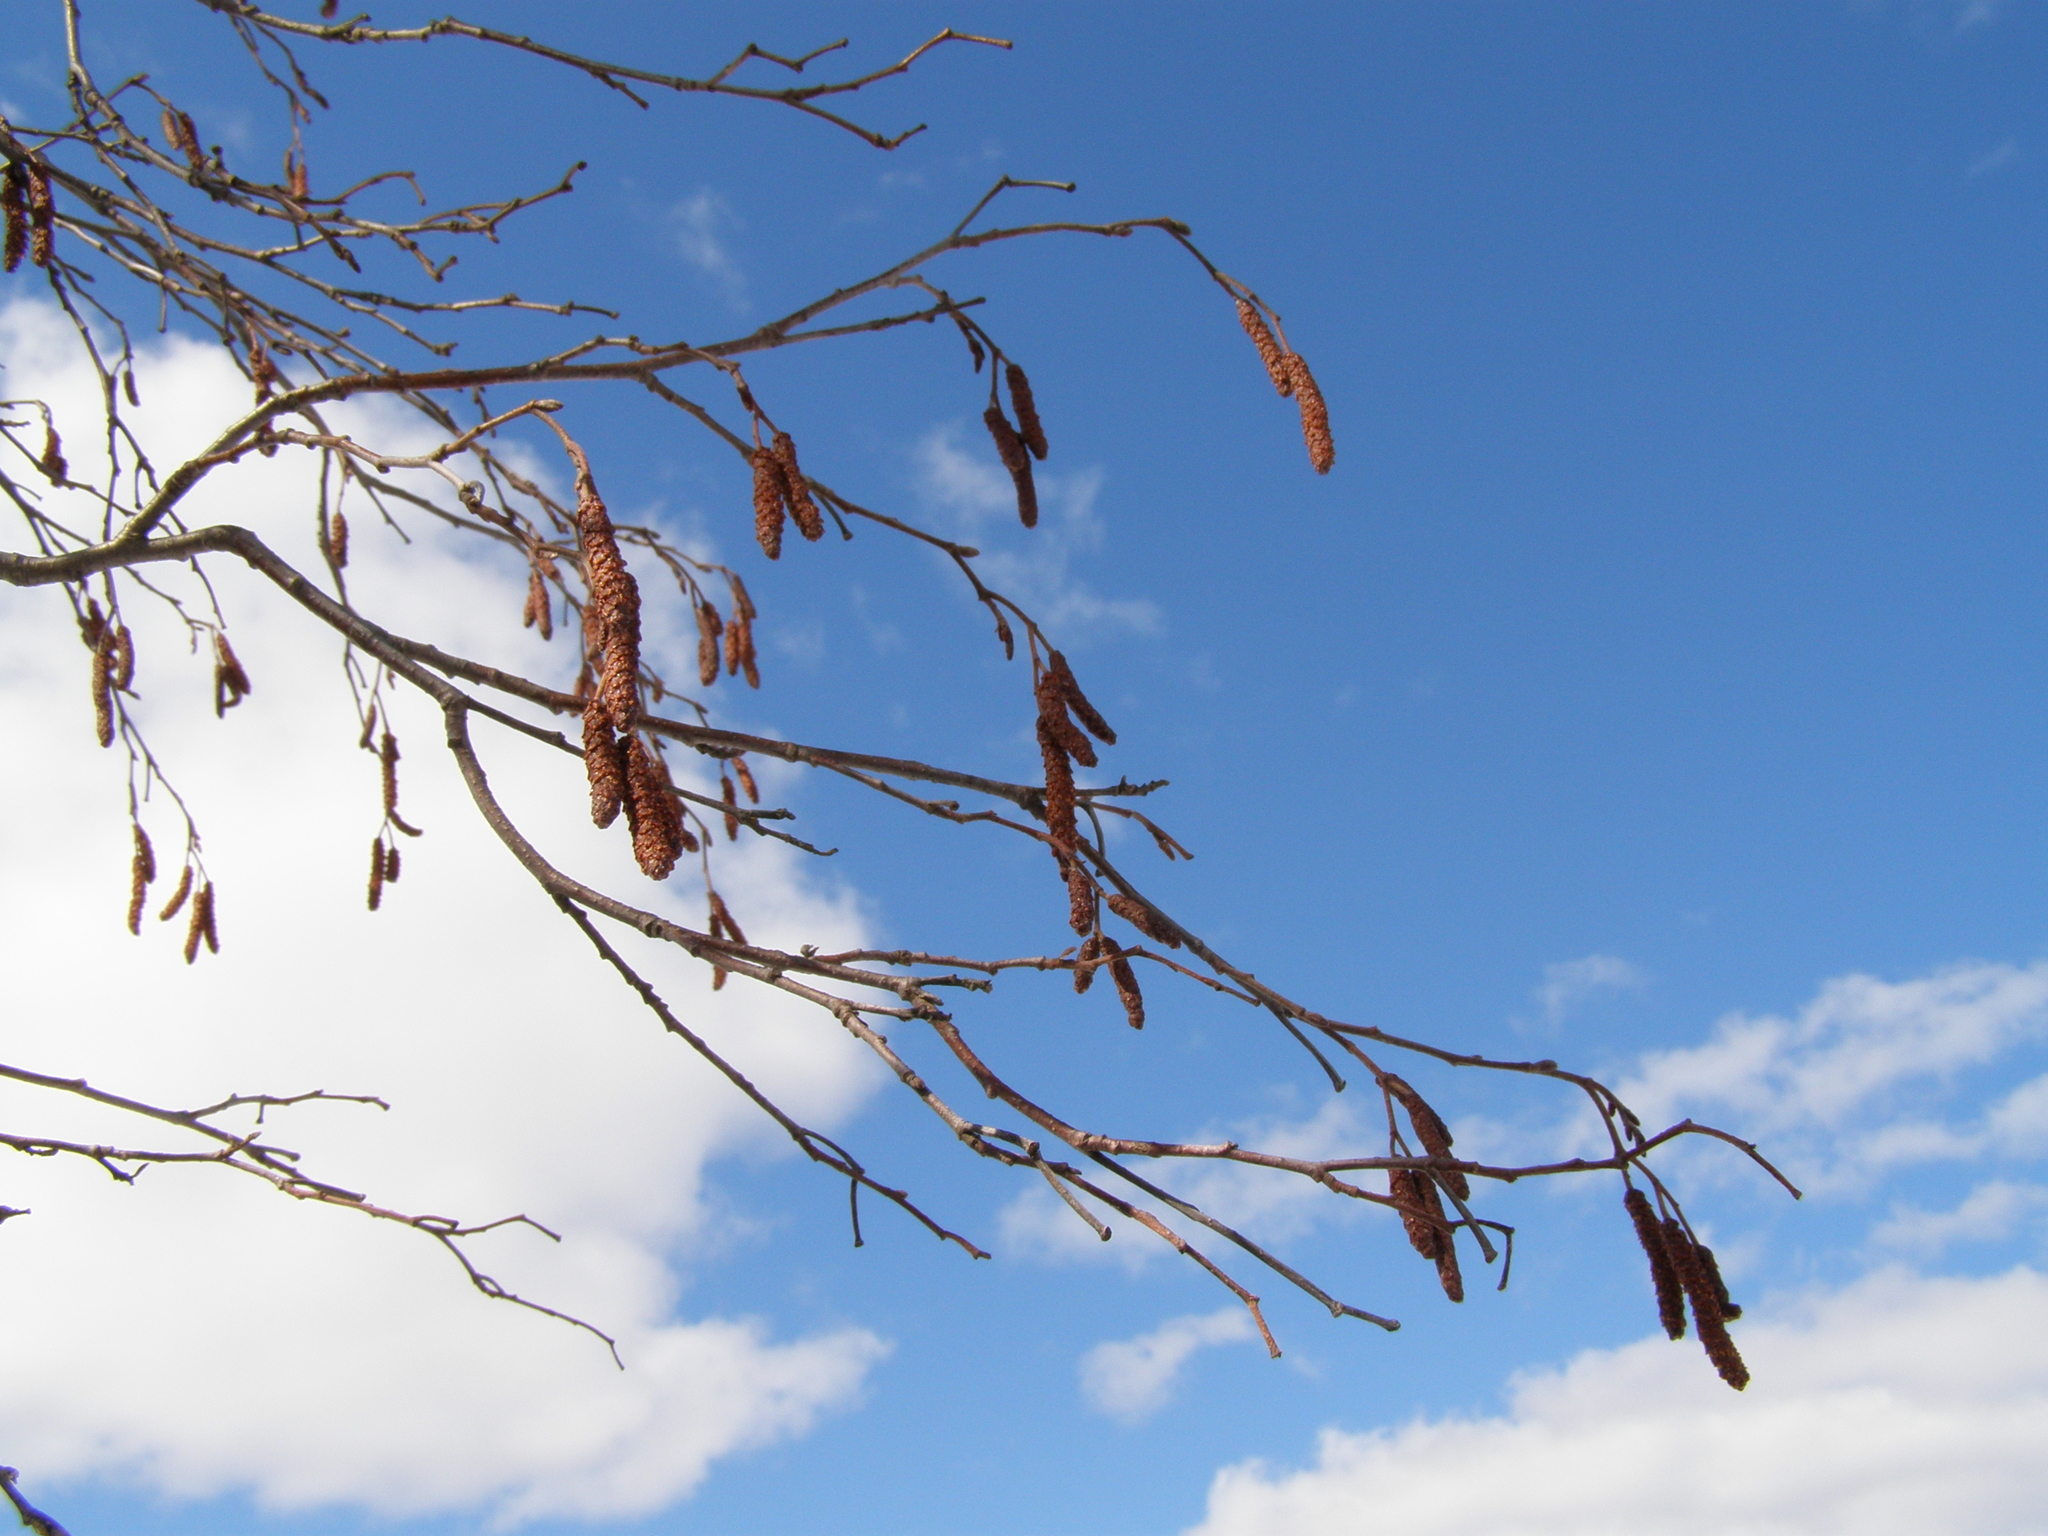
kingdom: Plantae
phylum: Tracheophyta
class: Magnoliopsida
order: Fagales
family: Betulaceae
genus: Alnus
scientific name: Alnus incana
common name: Grey alder
